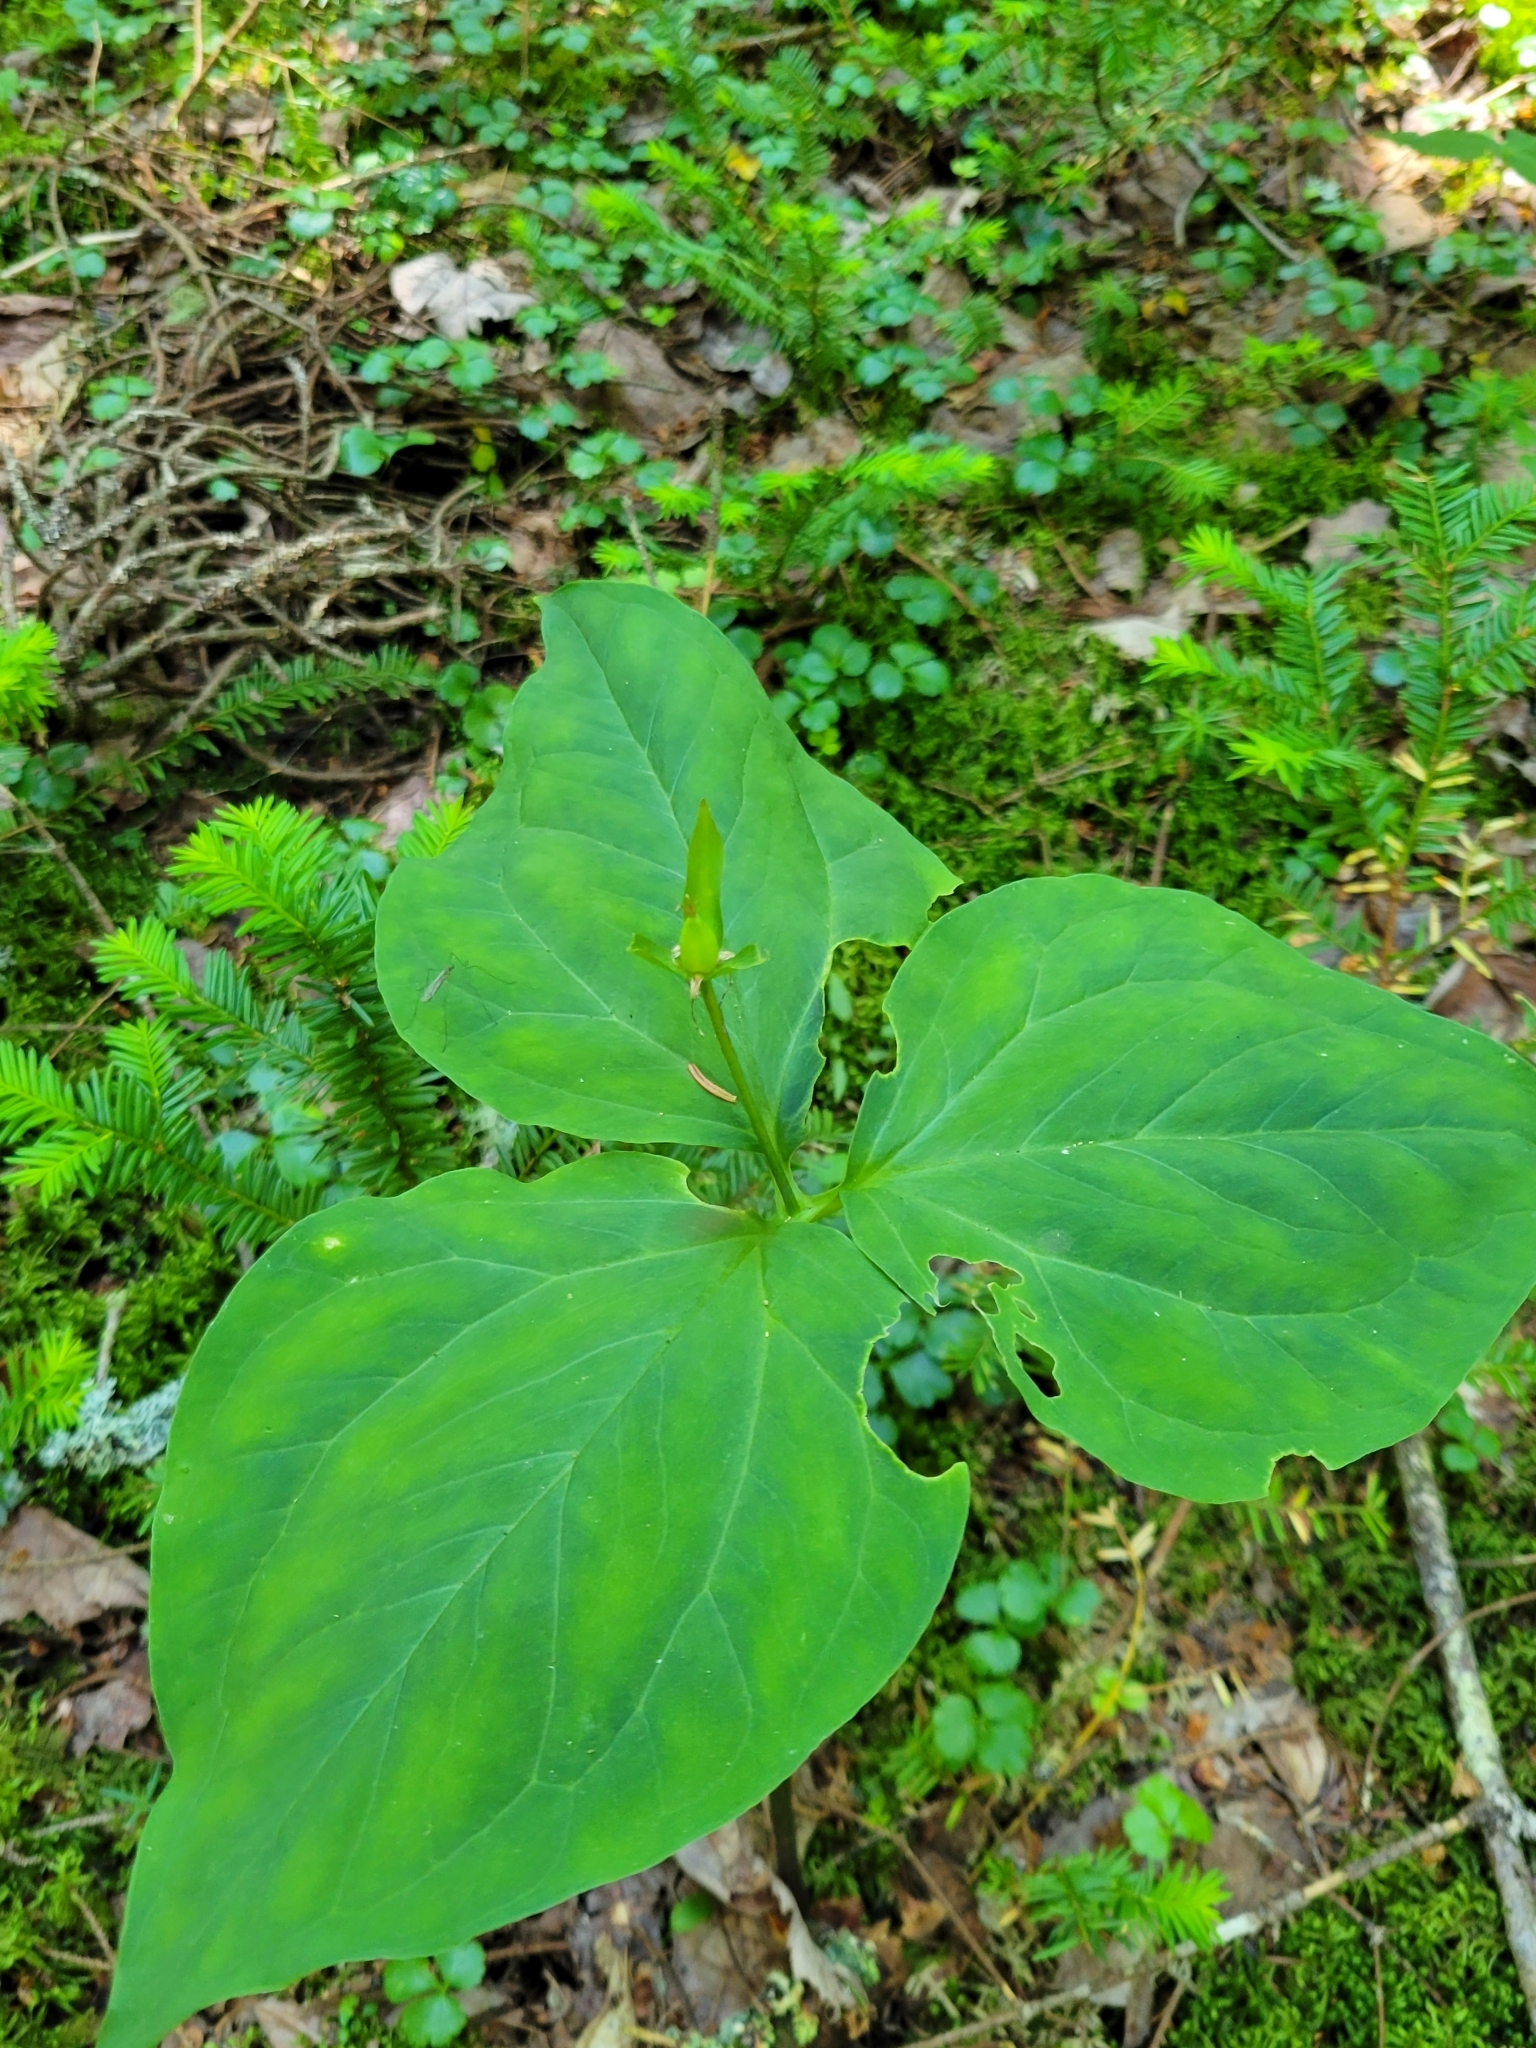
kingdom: Plantae
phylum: Tracheophyta
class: Liliopsida
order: Liliales
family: Melanthiaceae
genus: Trillium
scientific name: Trillium undulatum
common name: Paint trillium
